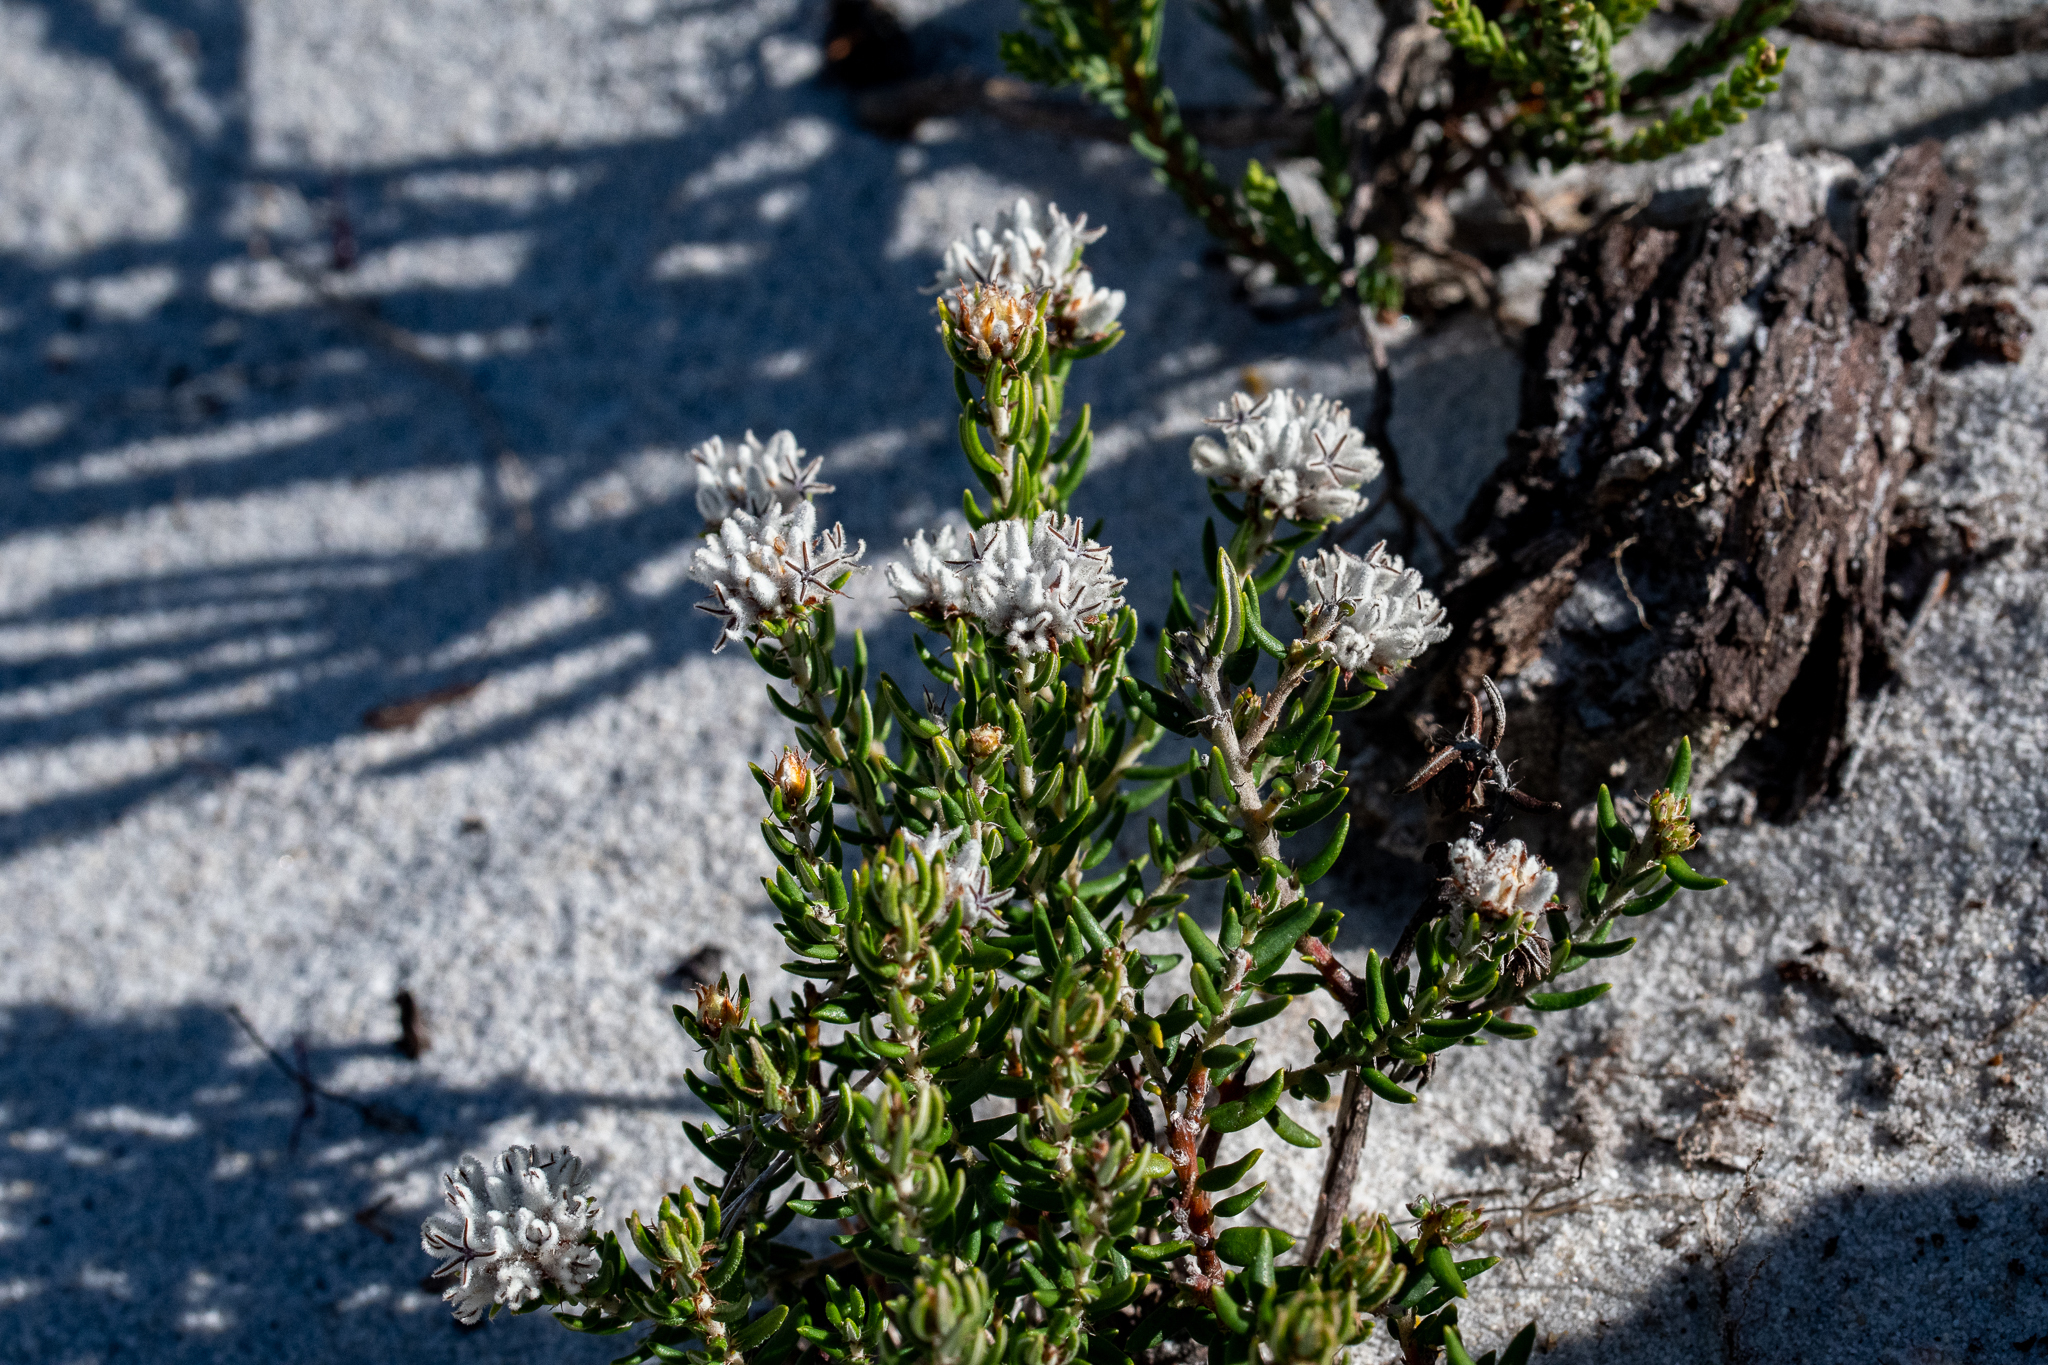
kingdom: Plantae
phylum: Tracheophyta
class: Magnoliopsida
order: Rosales
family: Rhamnaceae
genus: Trichocephalus
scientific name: Trichocephalus stipularis
